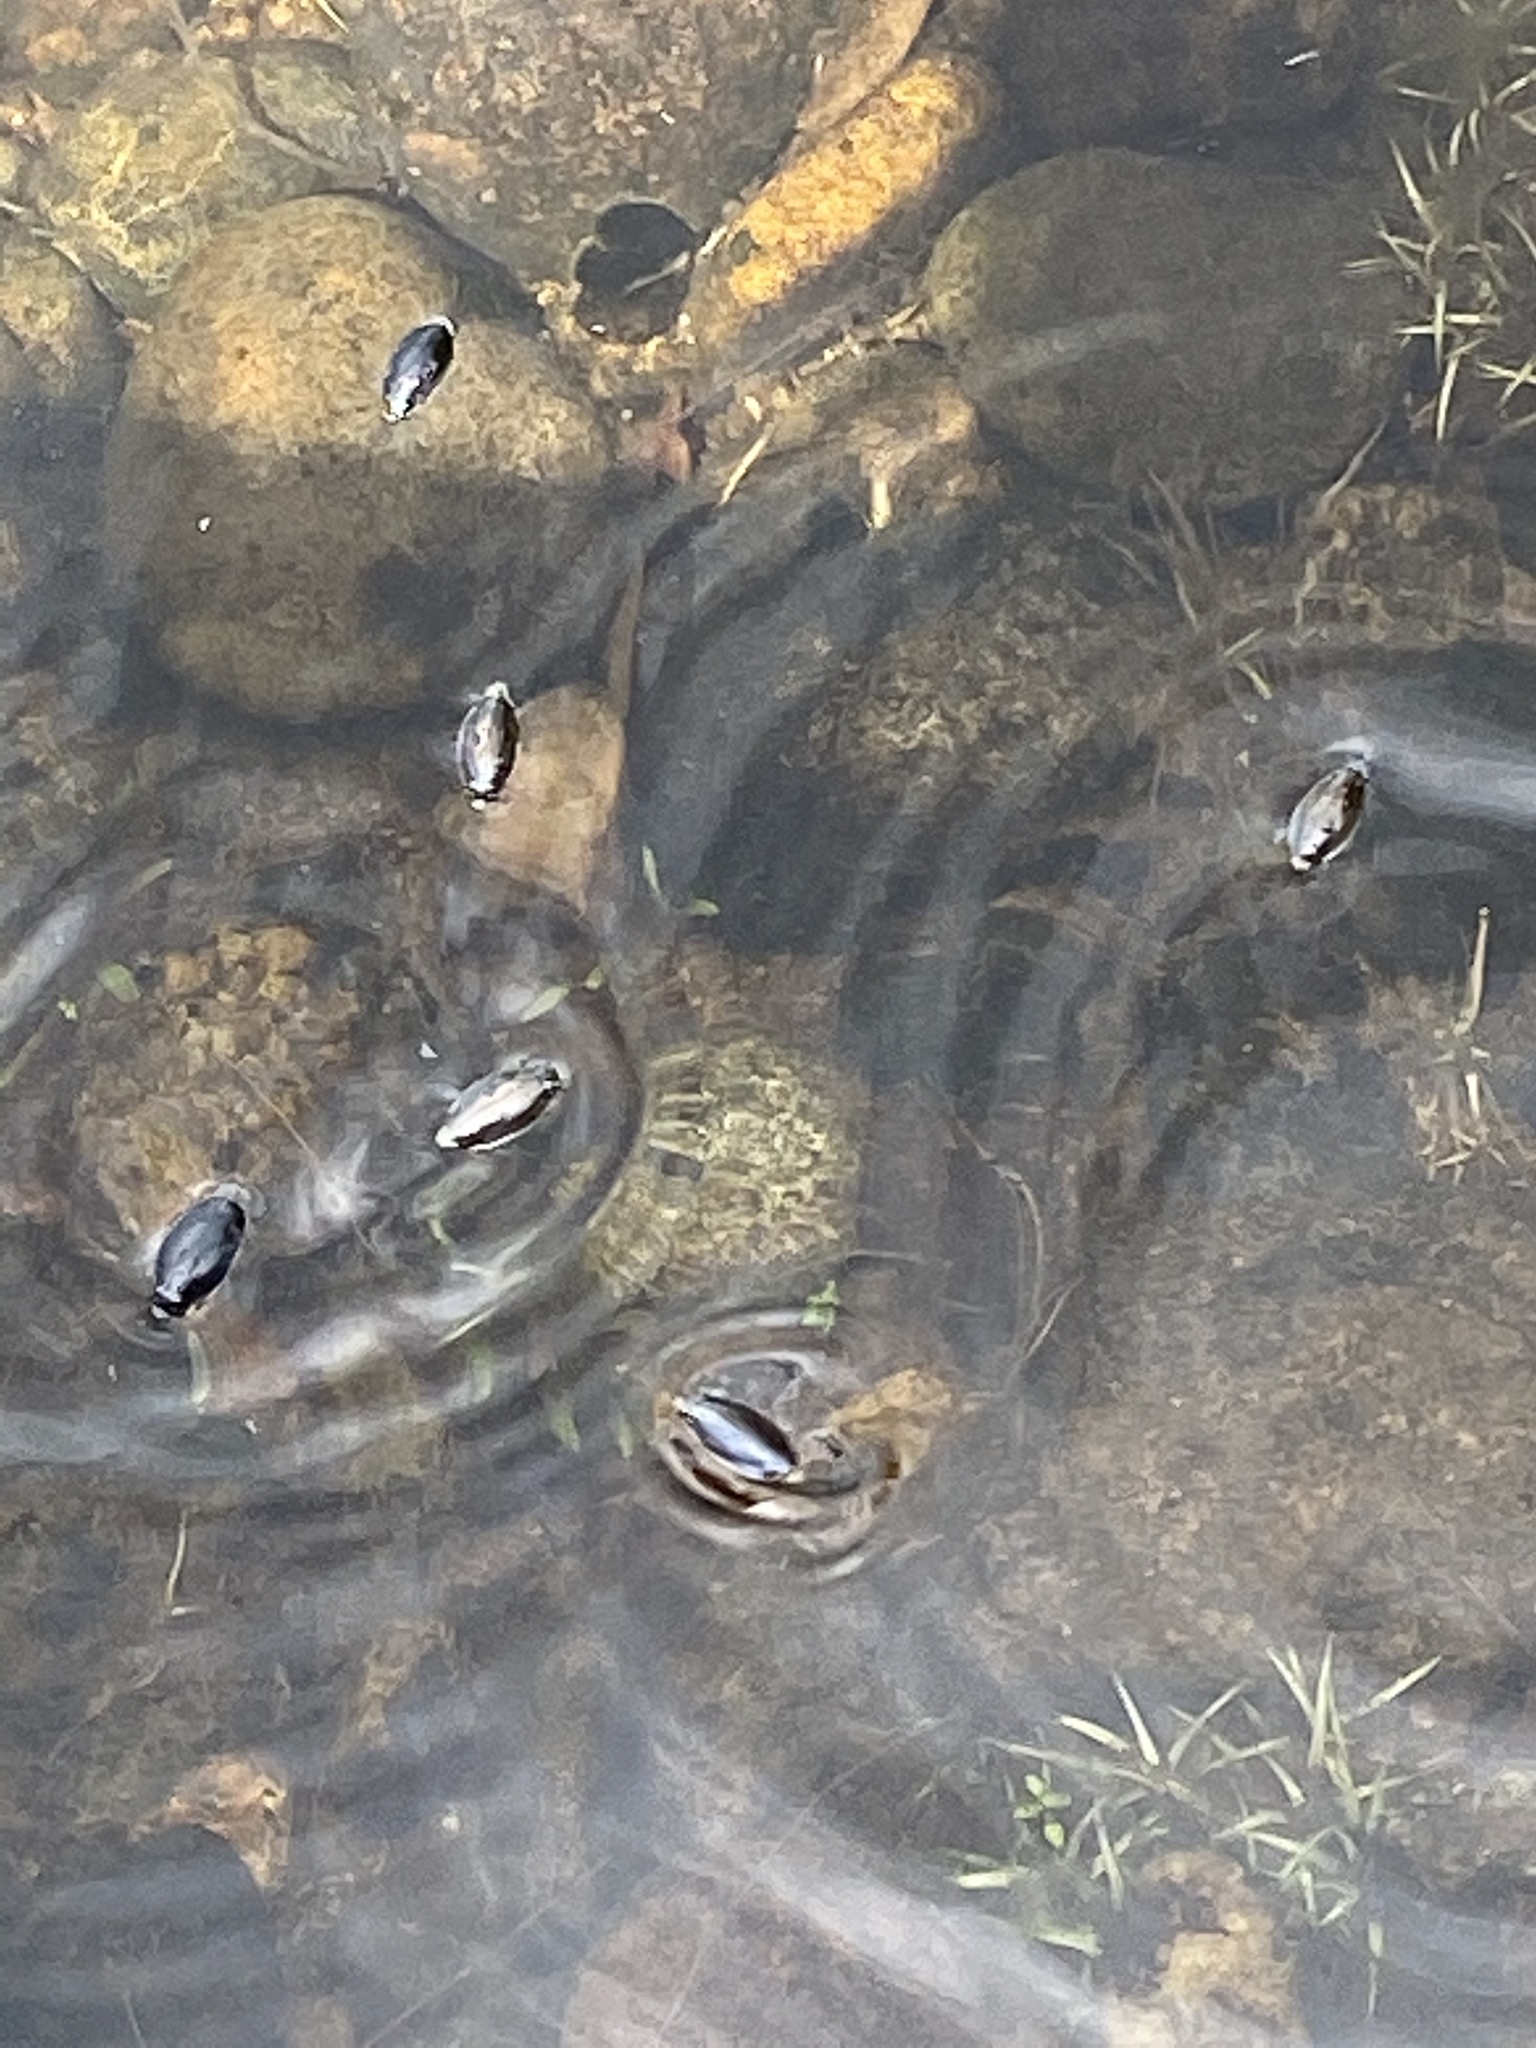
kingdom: Animalia
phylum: Arthropoda
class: Insecta
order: Coleoptera
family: Gyrinidae
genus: Dineutus
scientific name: Dineutus
